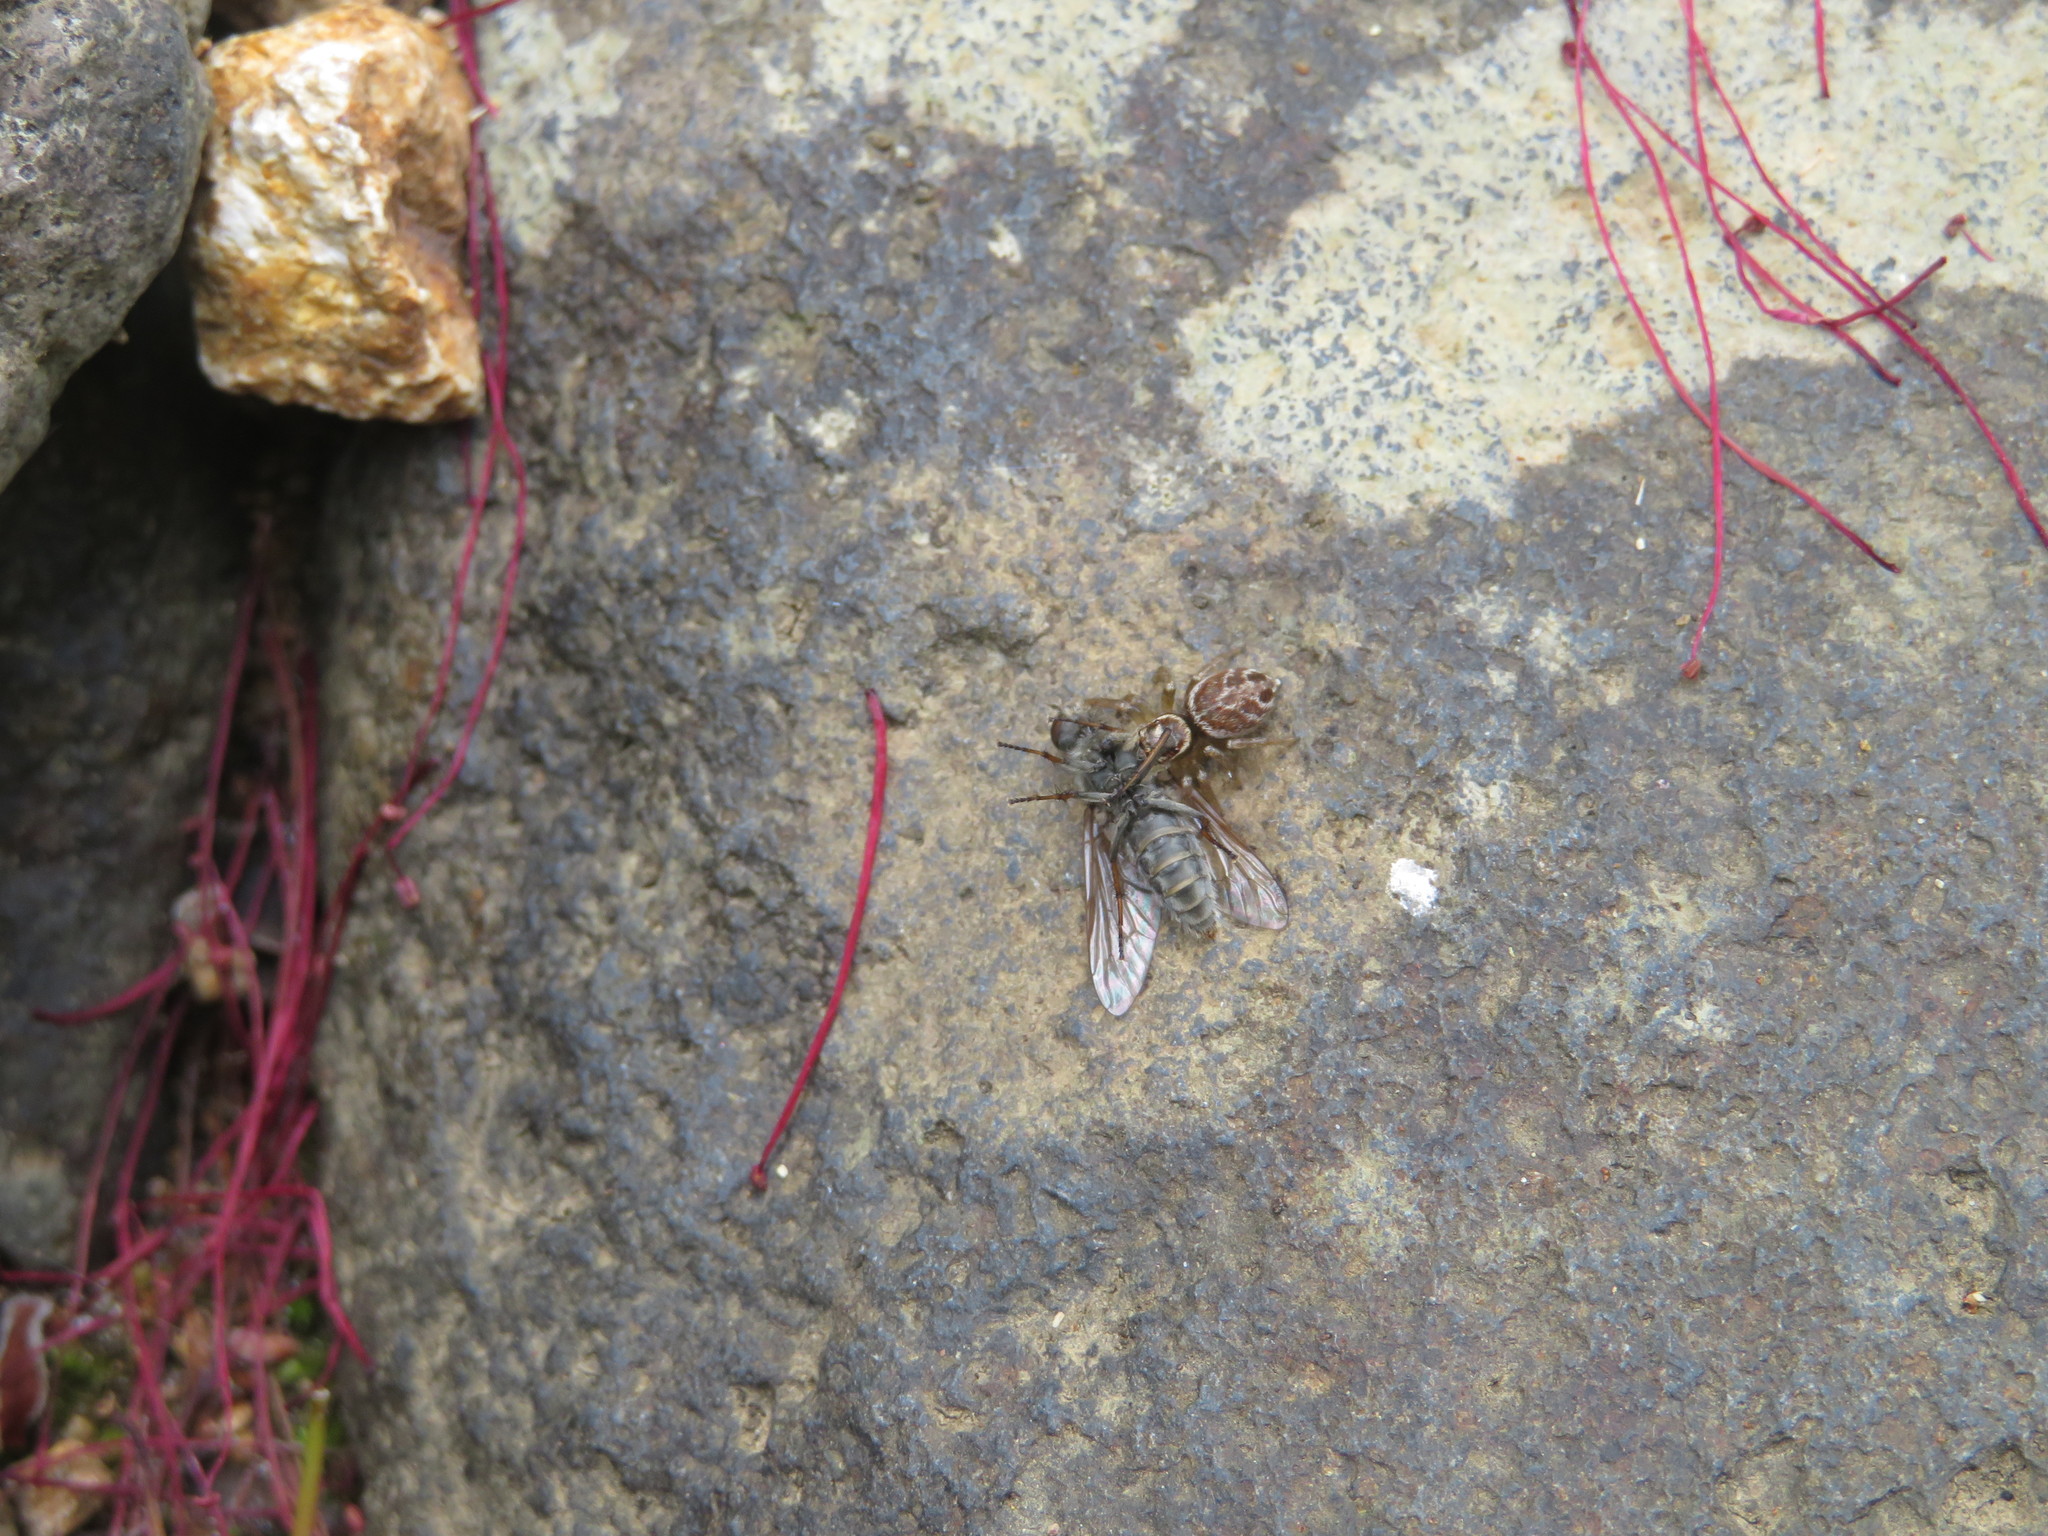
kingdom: Animalia
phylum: Arthropoda
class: Arachnida
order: Araneae
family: Salticidae
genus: Maratus
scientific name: Maratus griseus
